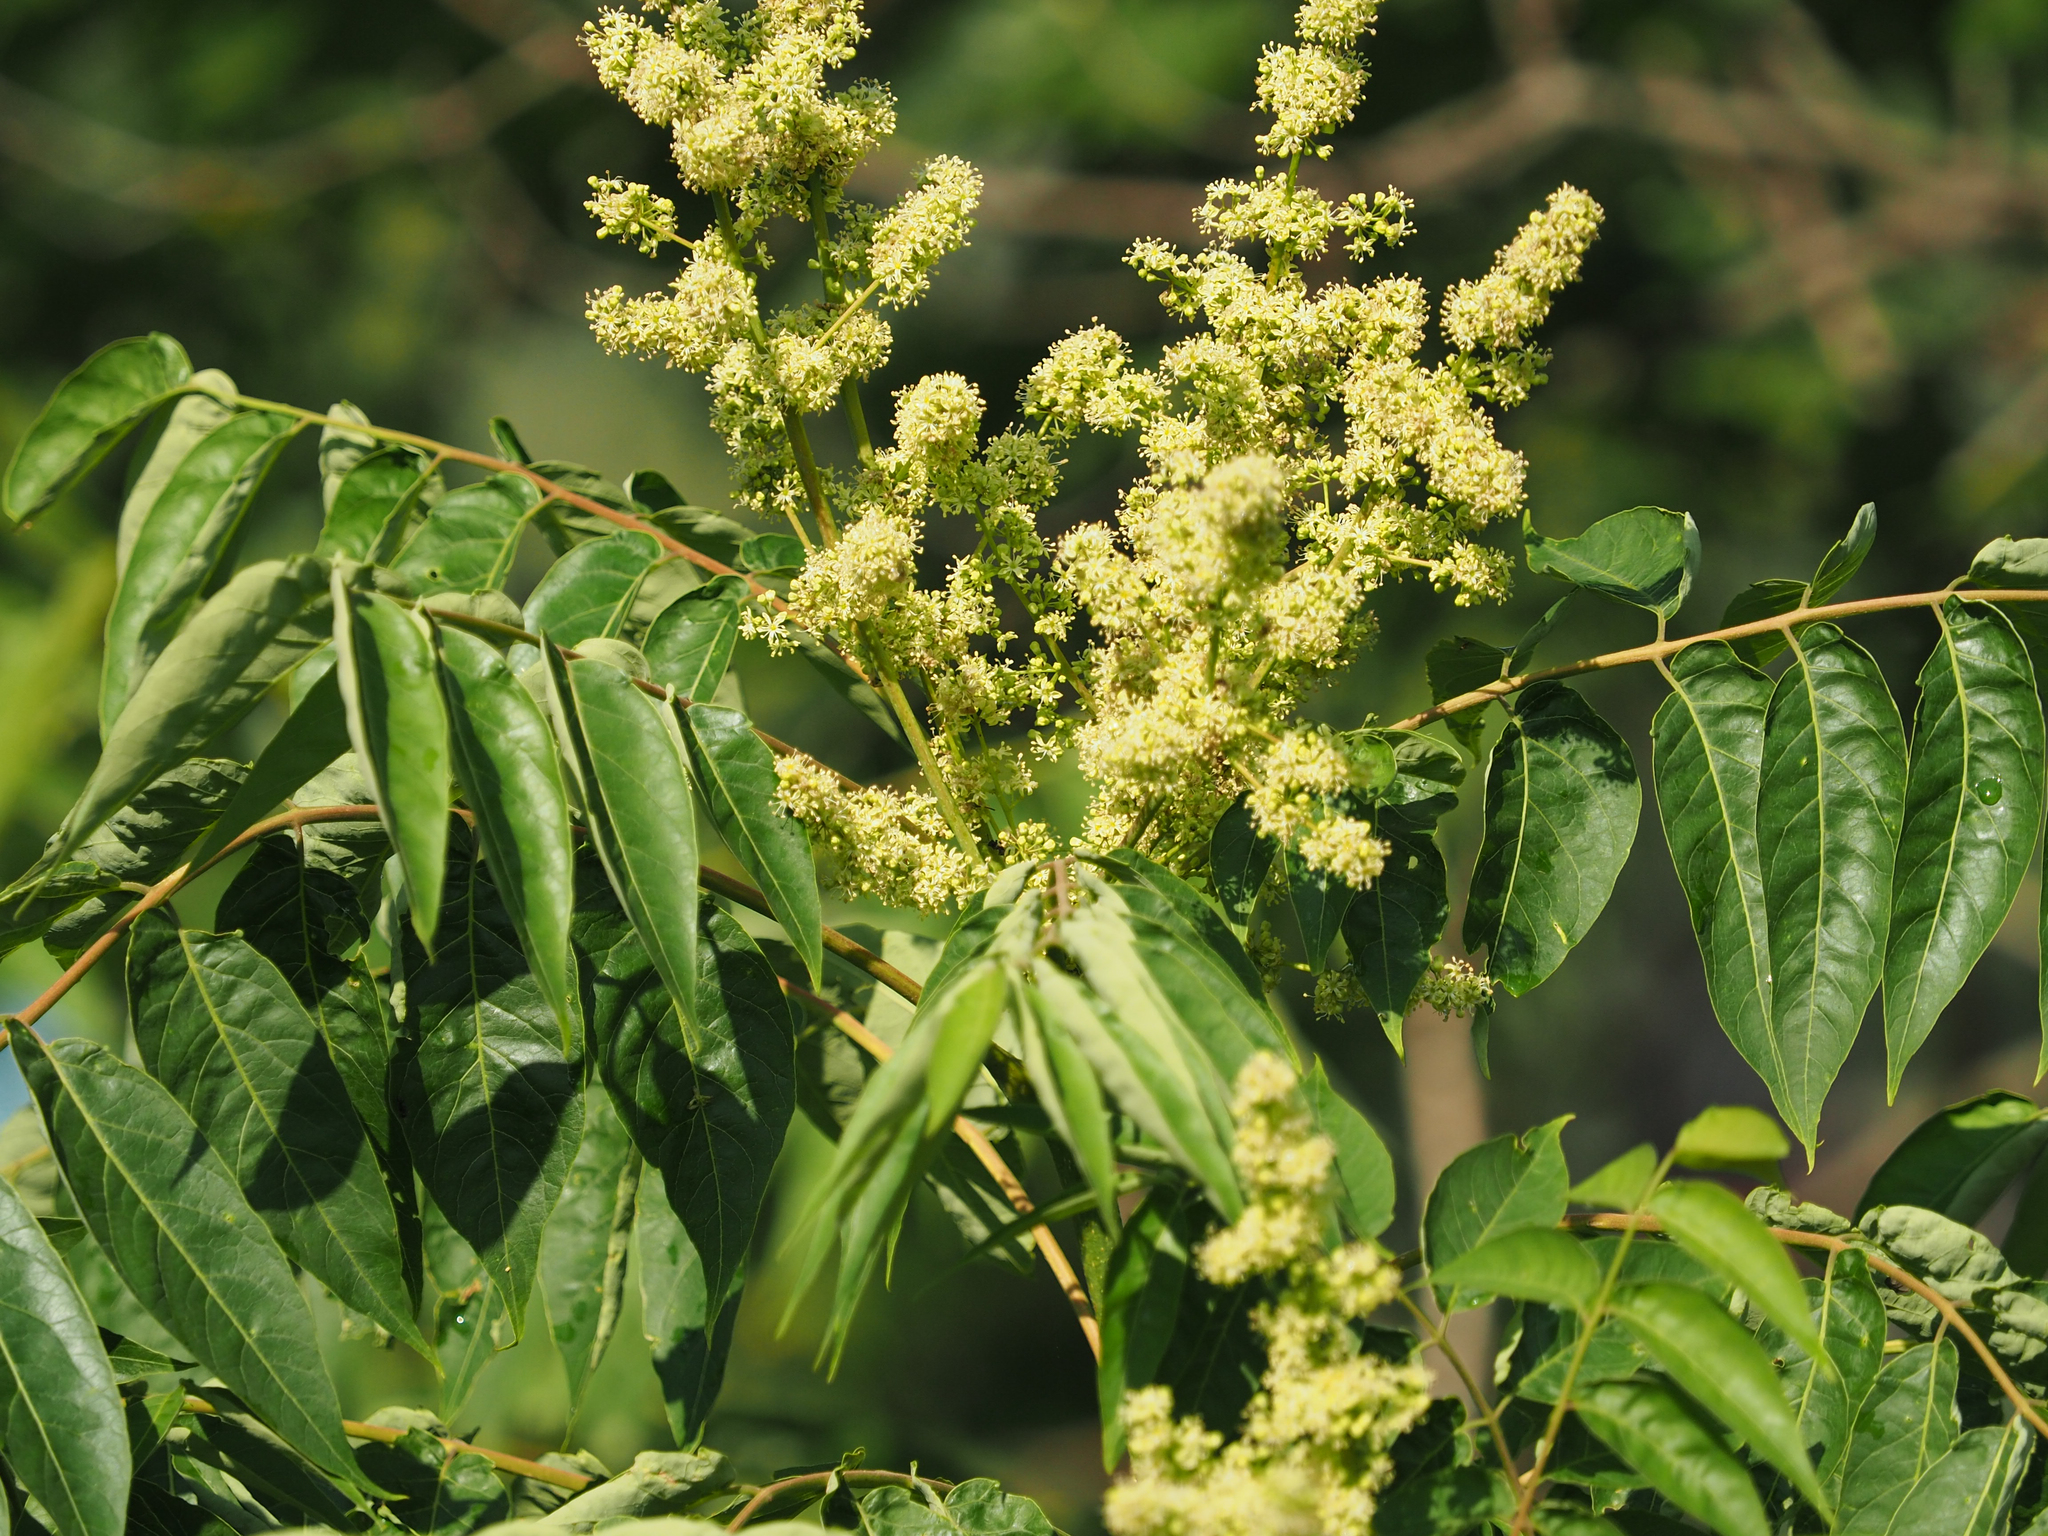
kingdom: Plantae
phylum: Tracheophyta
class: Magnoliopsida
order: Sapindales
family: Simaroubaceae
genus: Ailanthus
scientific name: Ailanthus altissima
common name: Tree-of-heaven
